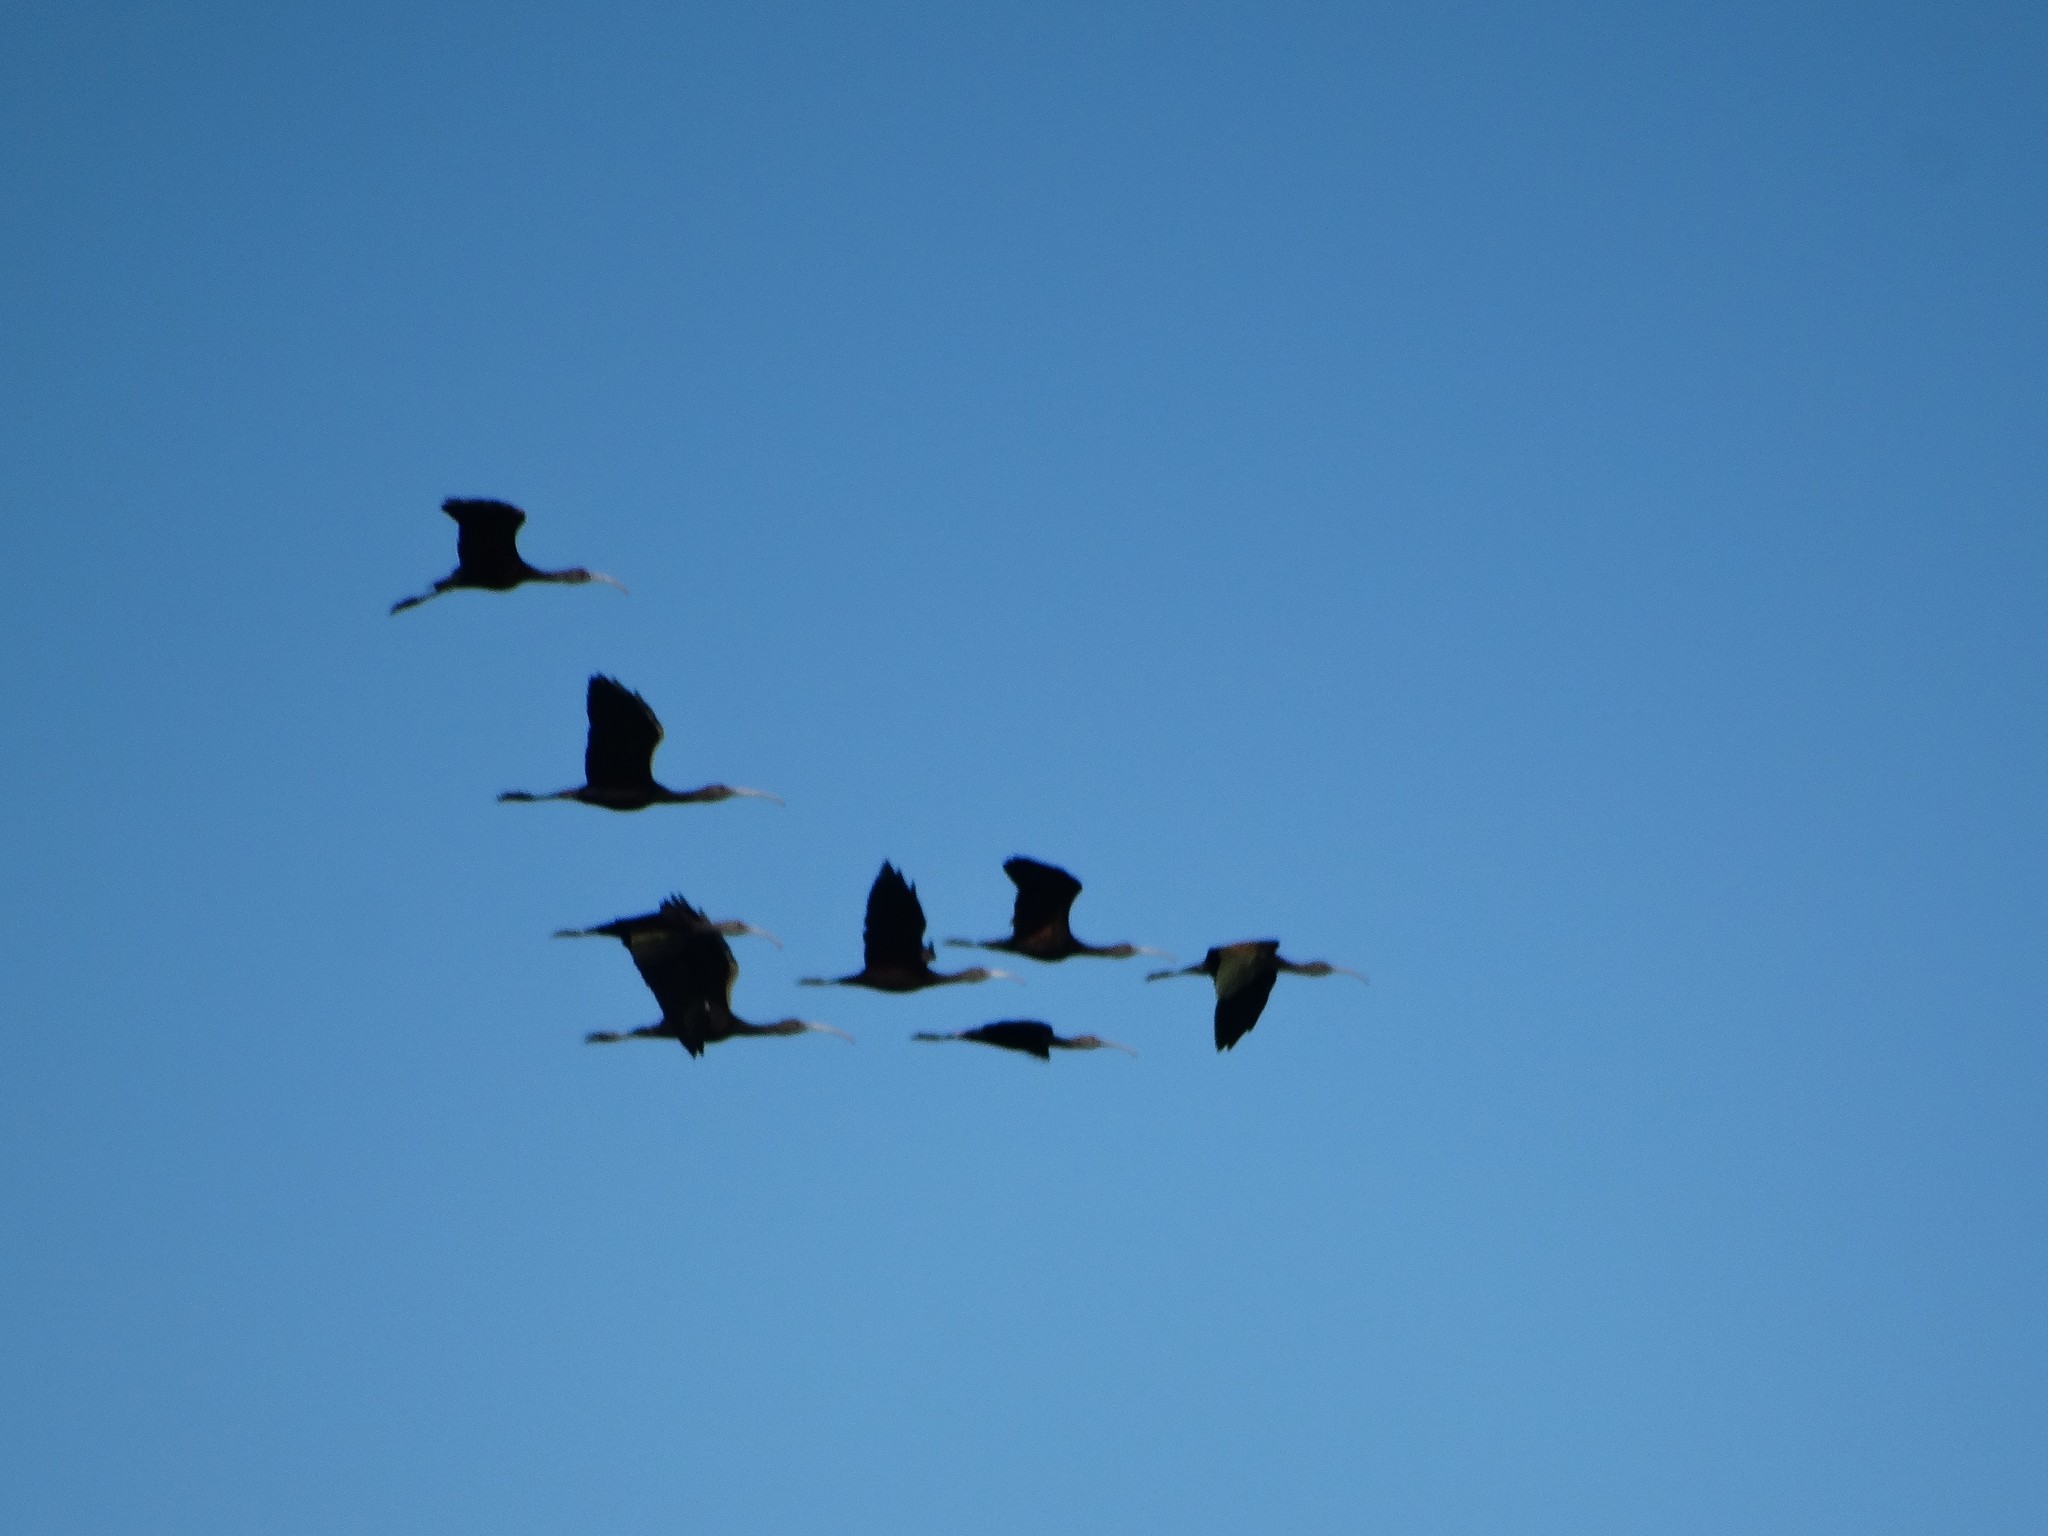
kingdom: Animalia
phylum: Chordata
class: Aves
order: Pelecaniformes
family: Threskiornithidae
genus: Plegadis
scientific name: Plegadis chihi
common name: White-faced ibis
